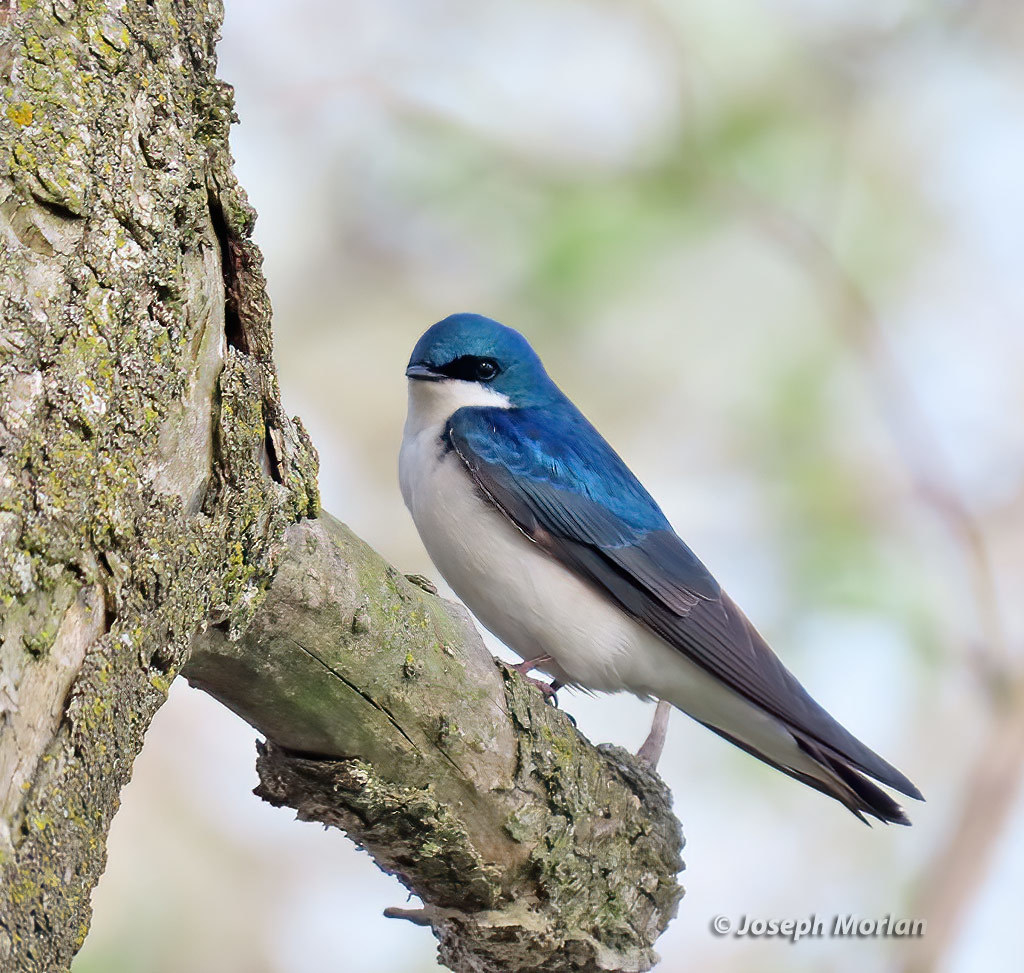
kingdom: Animalia
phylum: Chordata
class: Aves
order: Passeriformes
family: Hirundinidae
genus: Tachycineta
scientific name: Tachycineta bicolor
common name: Tree swallow
